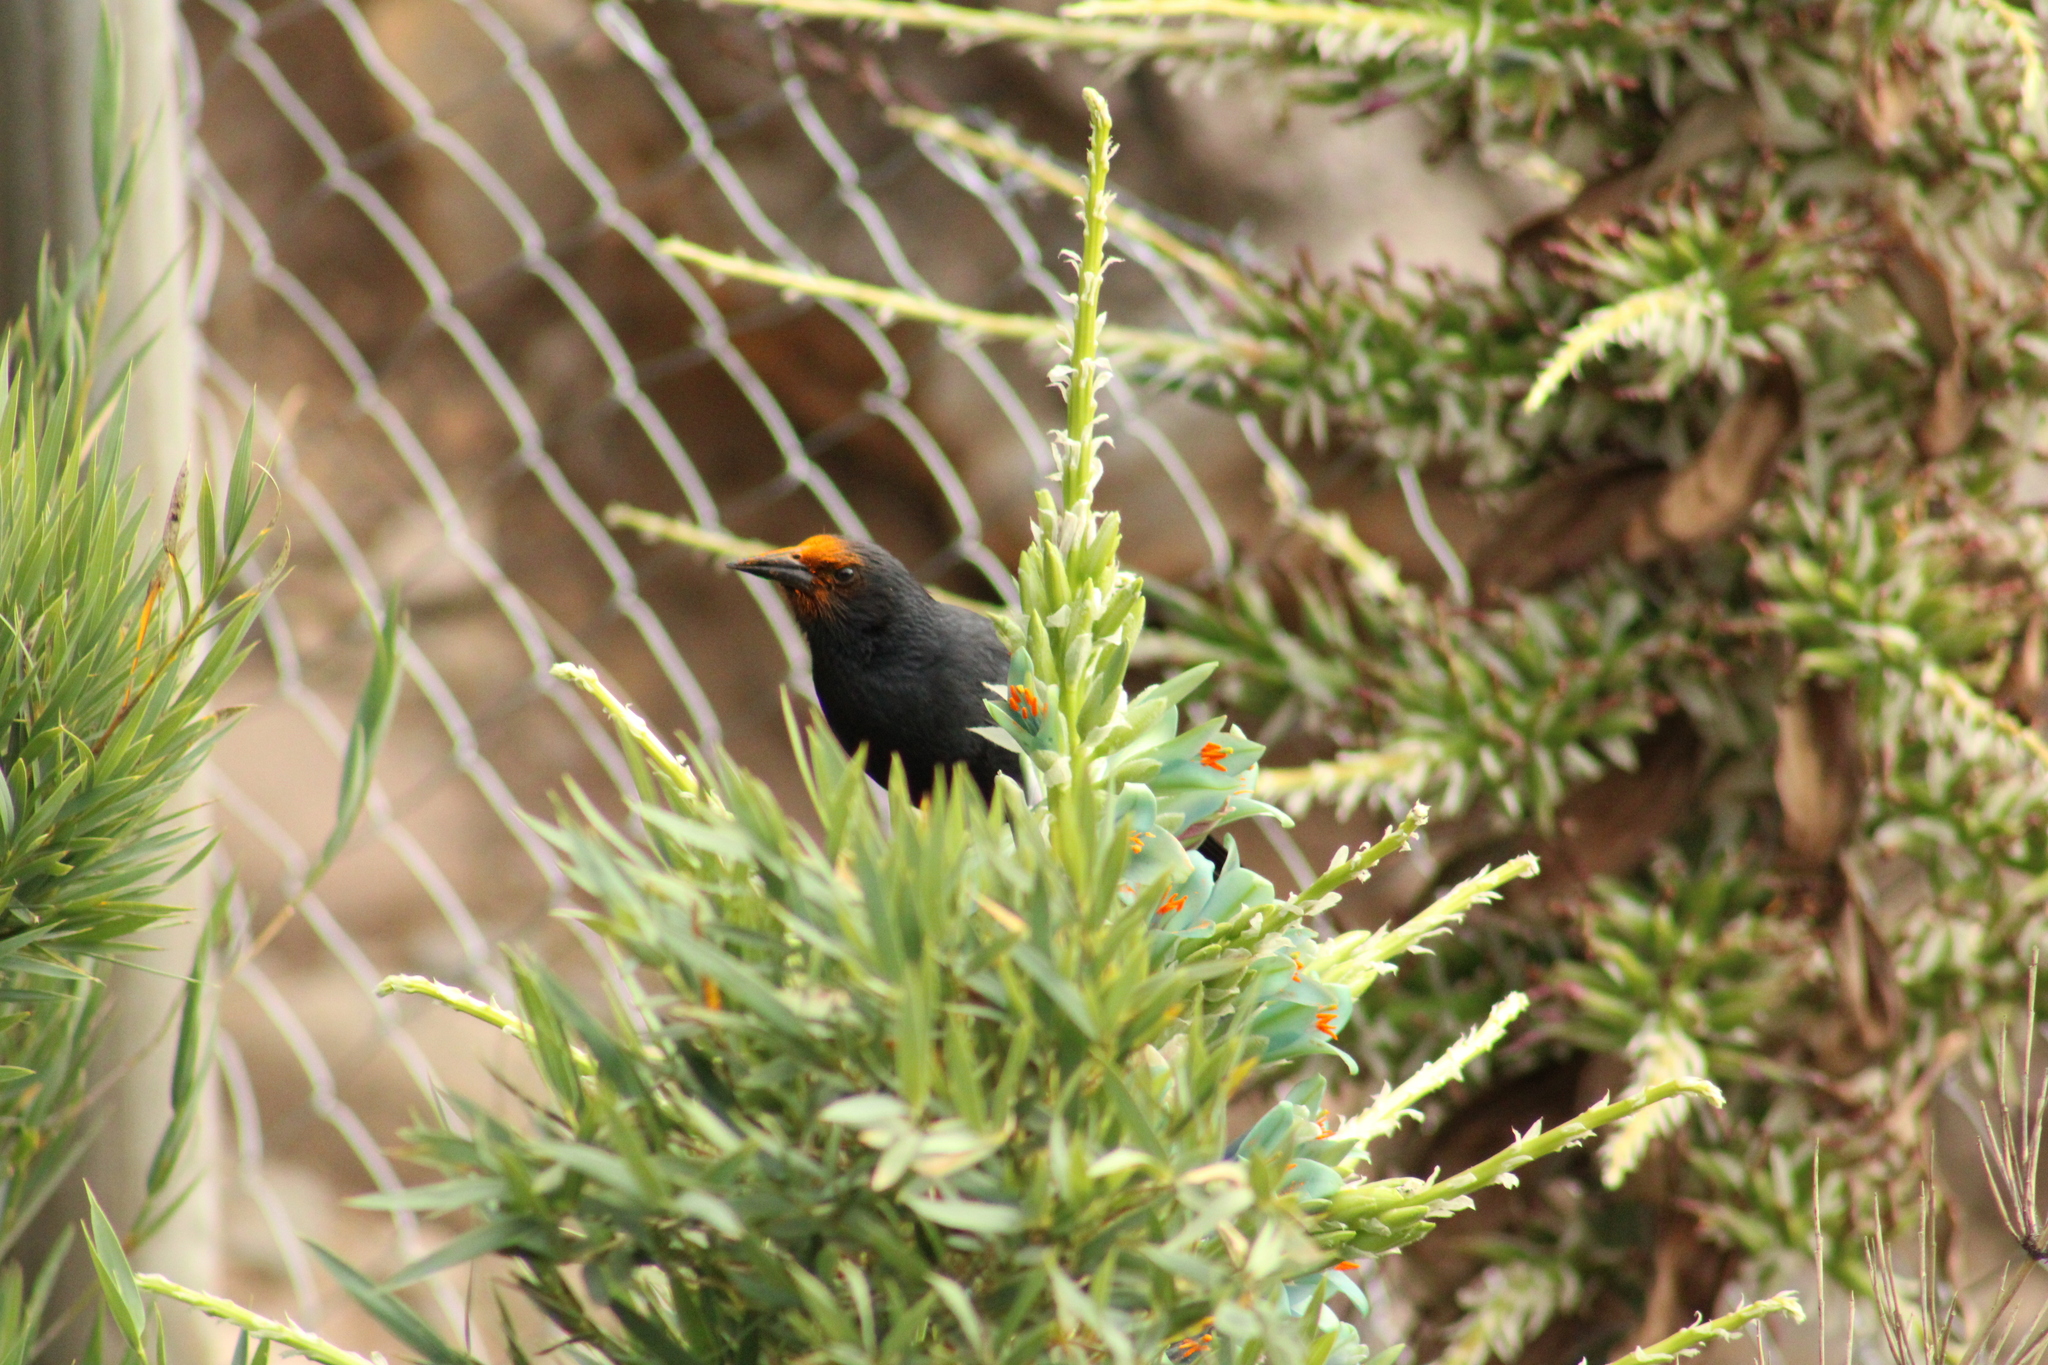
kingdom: Animalia
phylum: Chordata
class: Aves
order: Passeriformes
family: Icteridae
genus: Curaeus
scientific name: Curaeus curaeus
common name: Austral blackbird
